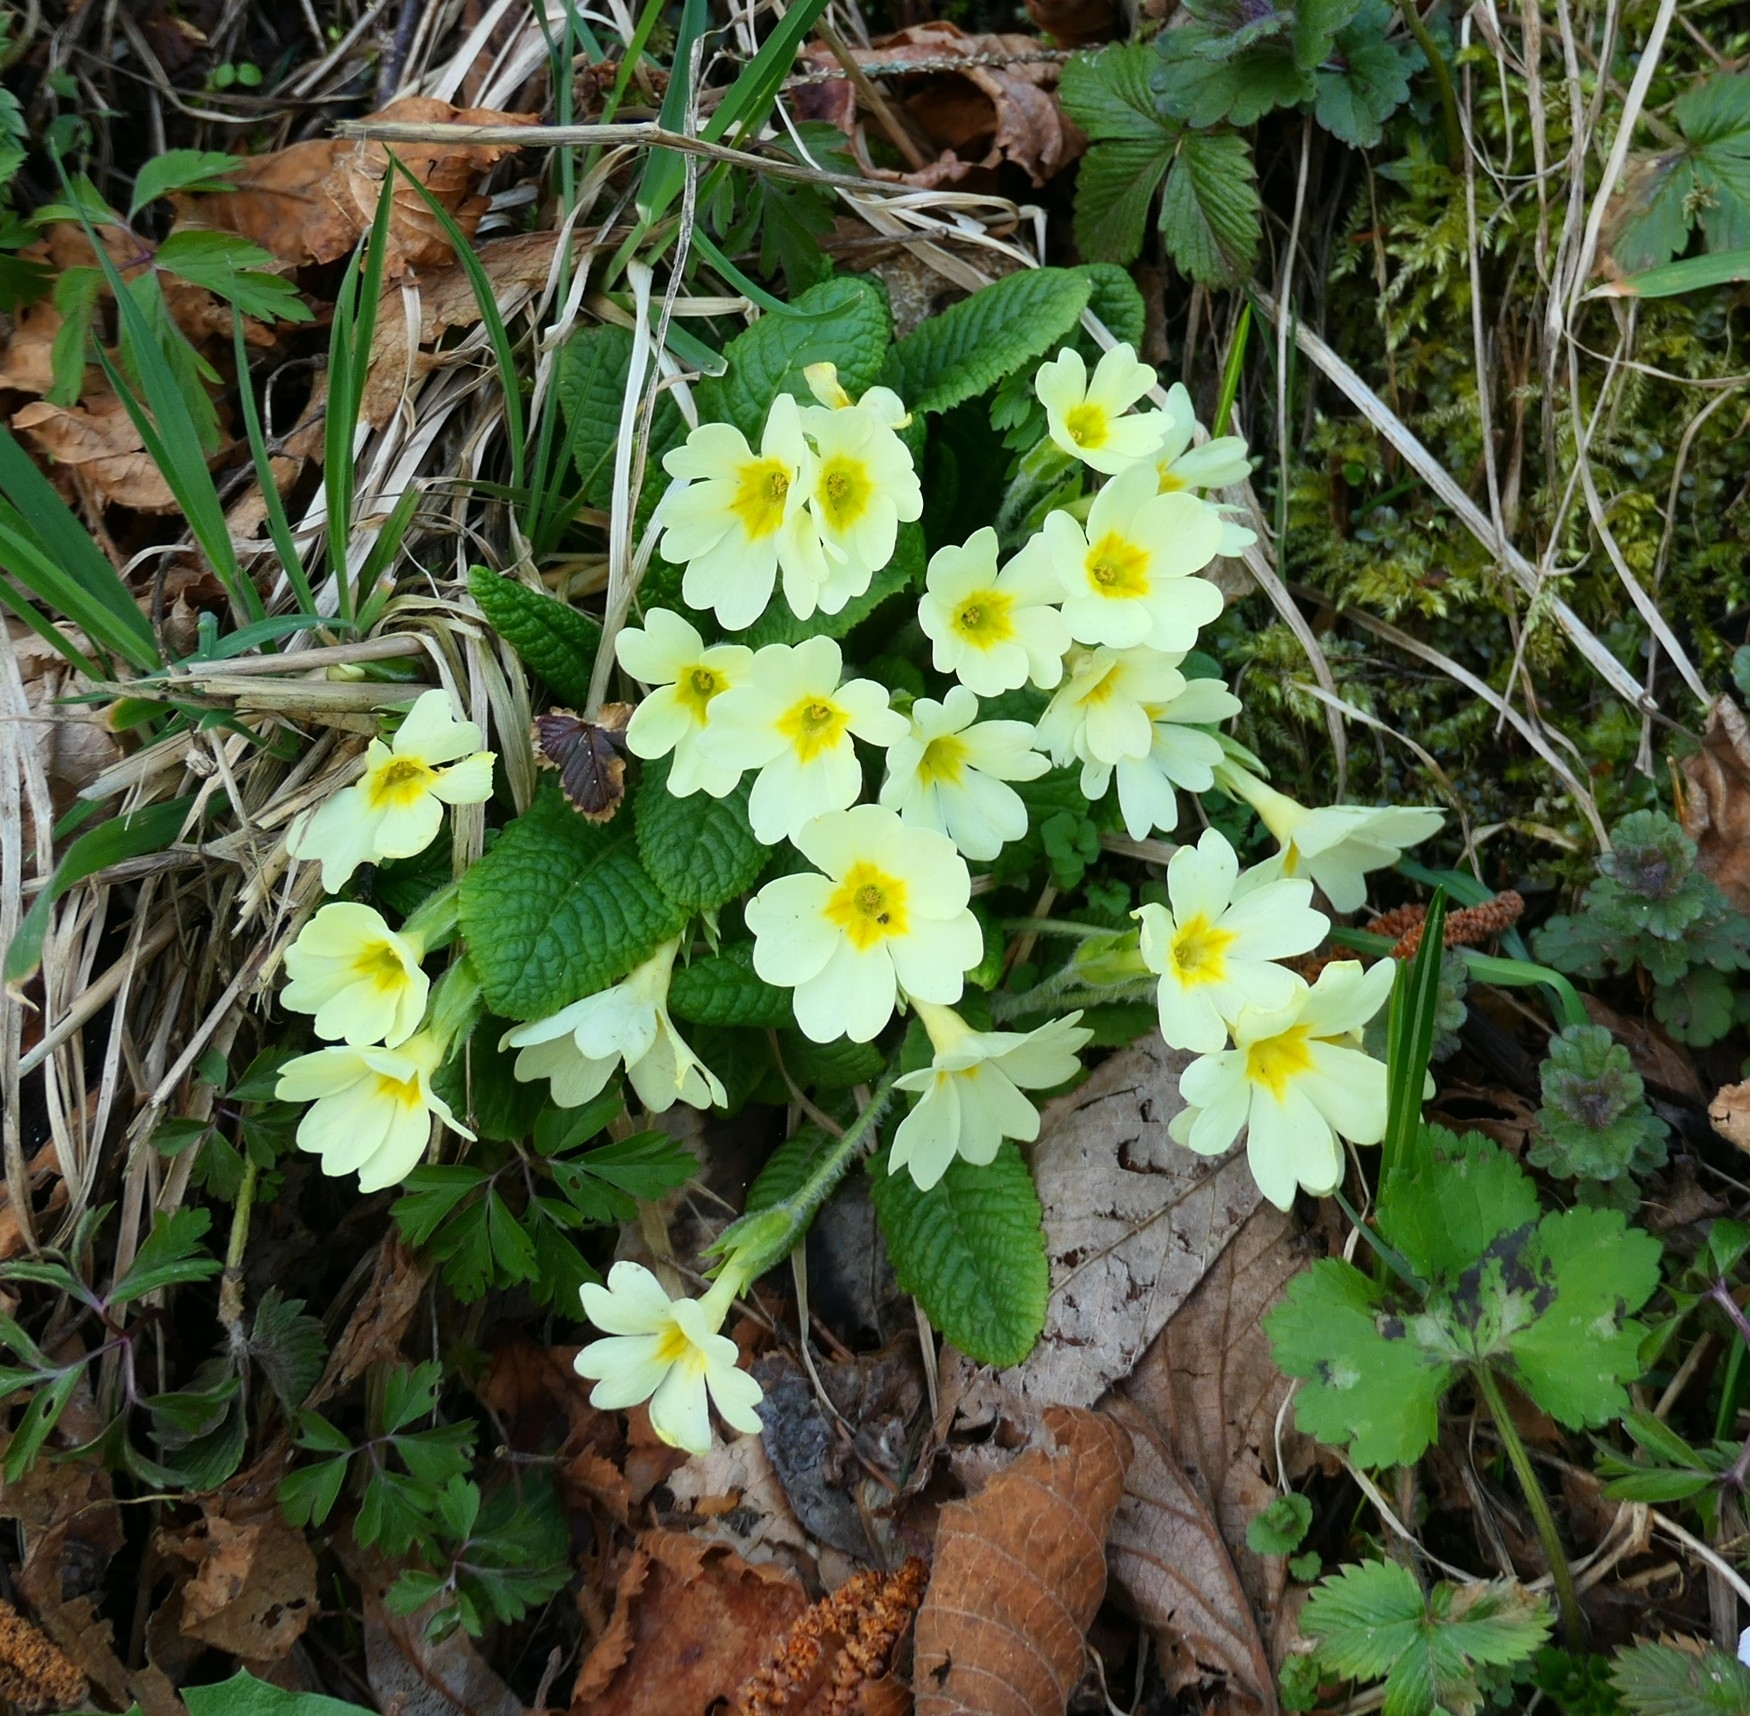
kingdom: Plantae
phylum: Tracheophyta
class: Magnoliopsida
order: Ericales
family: Primulaceae
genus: Primula
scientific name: Primula vulgaris
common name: Primrose
